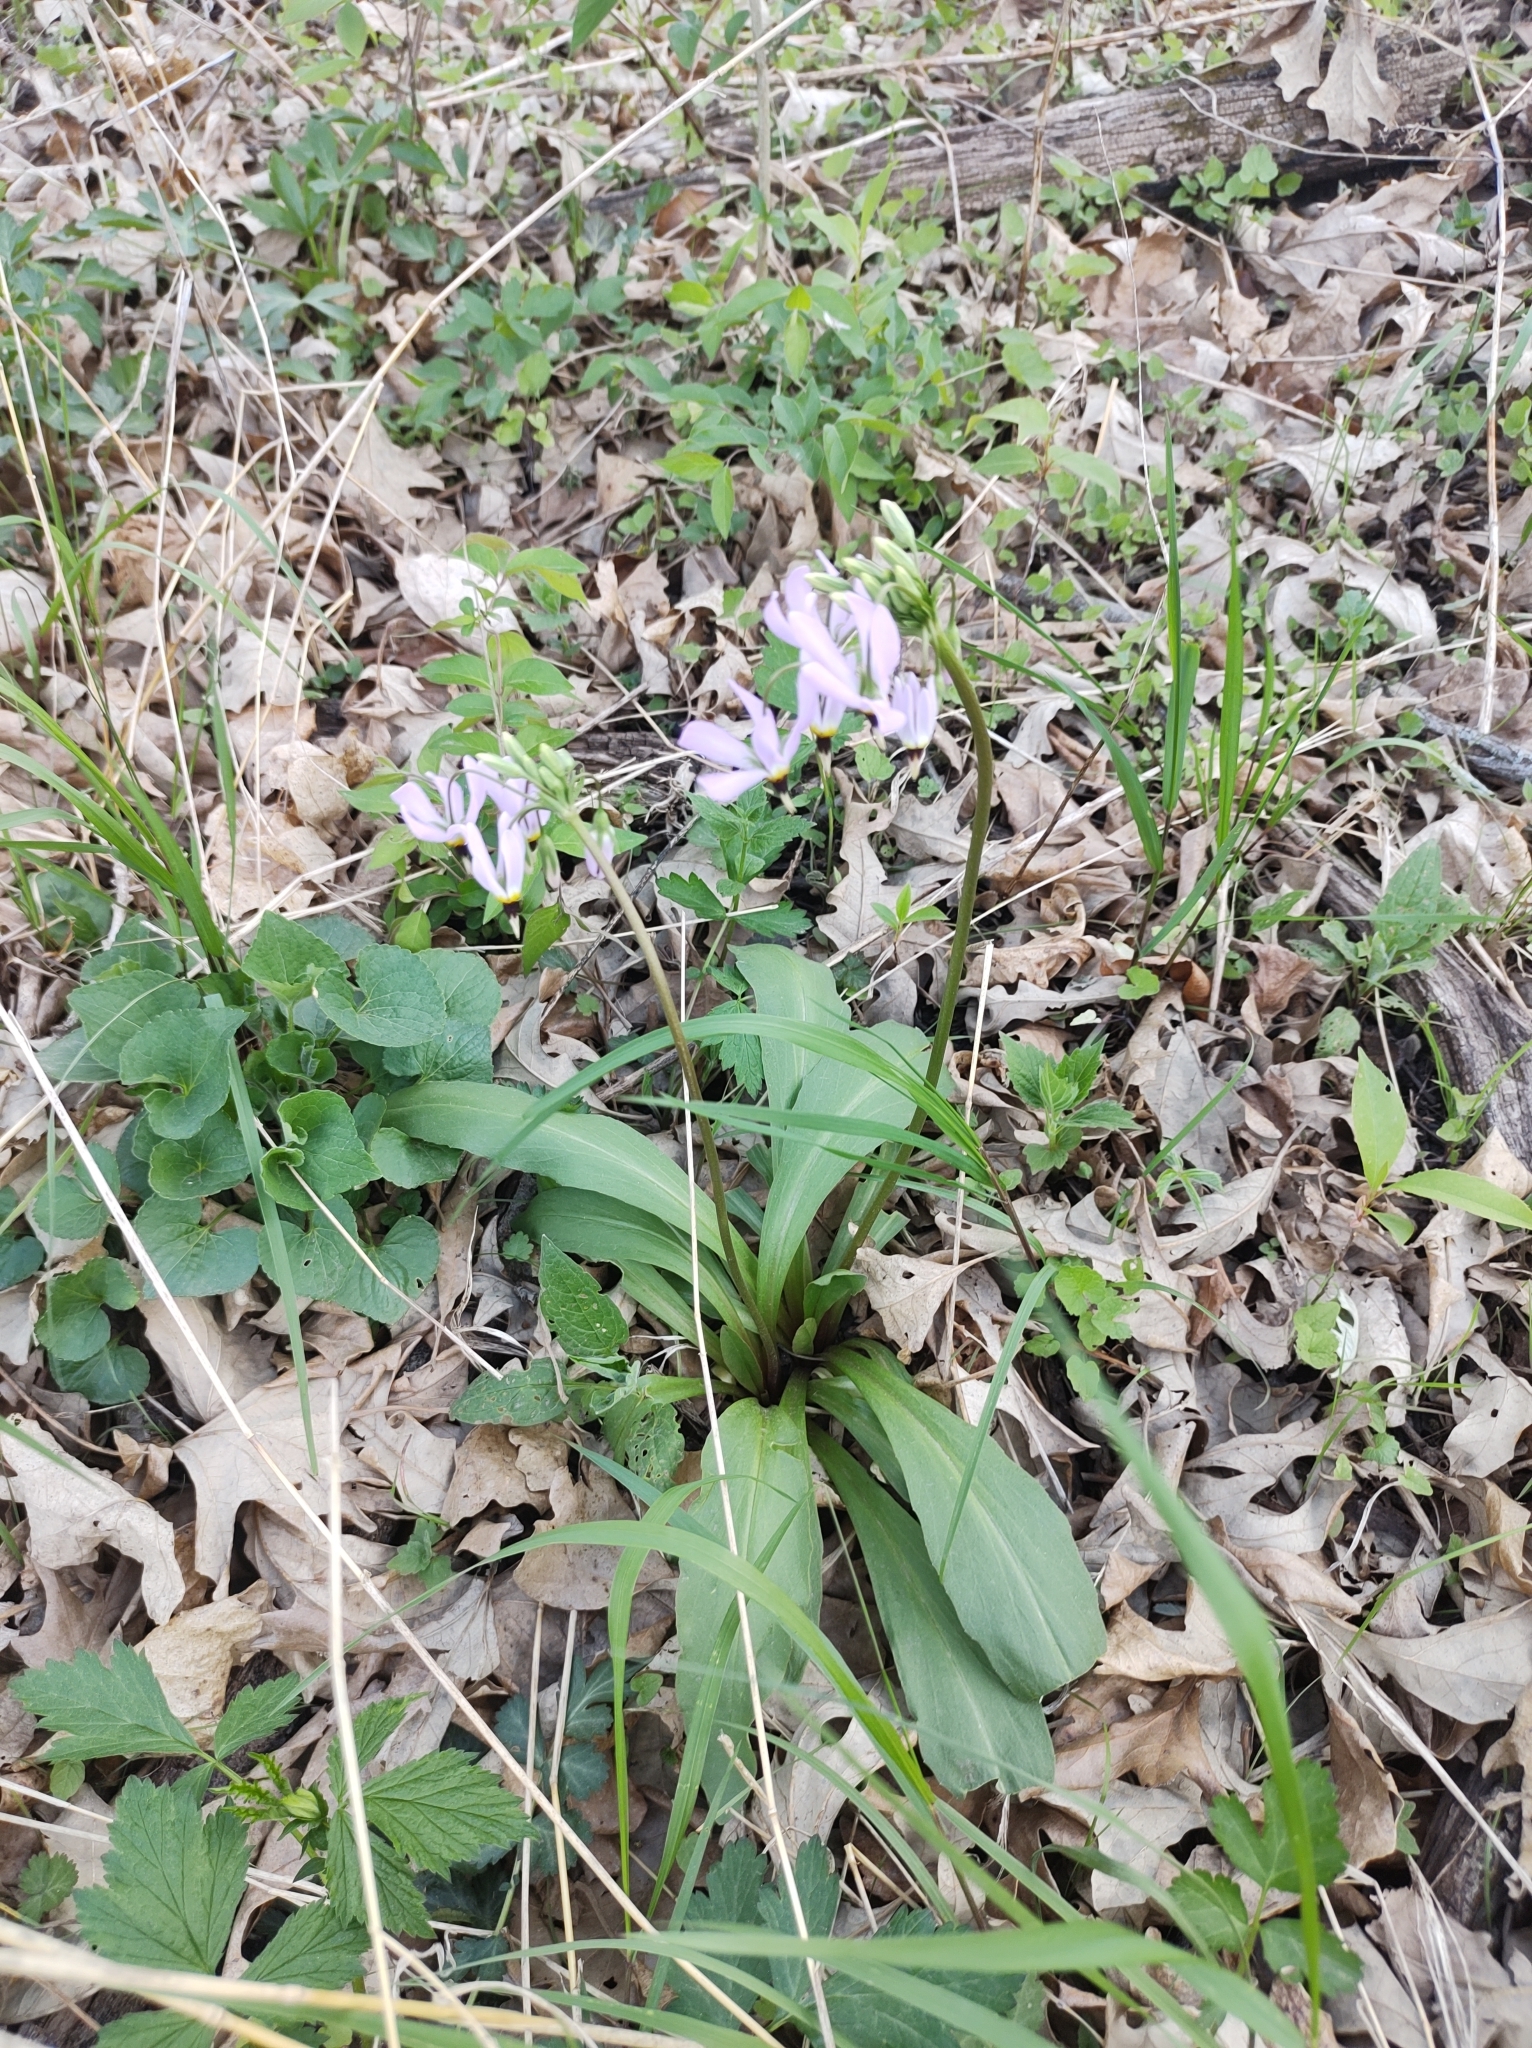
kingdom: Plantae
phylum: Tracheophyta
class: Magnoliopsida
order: Ericales
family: Primulaceae
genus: Dodecatheon
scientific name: Dodecatheon meadia
